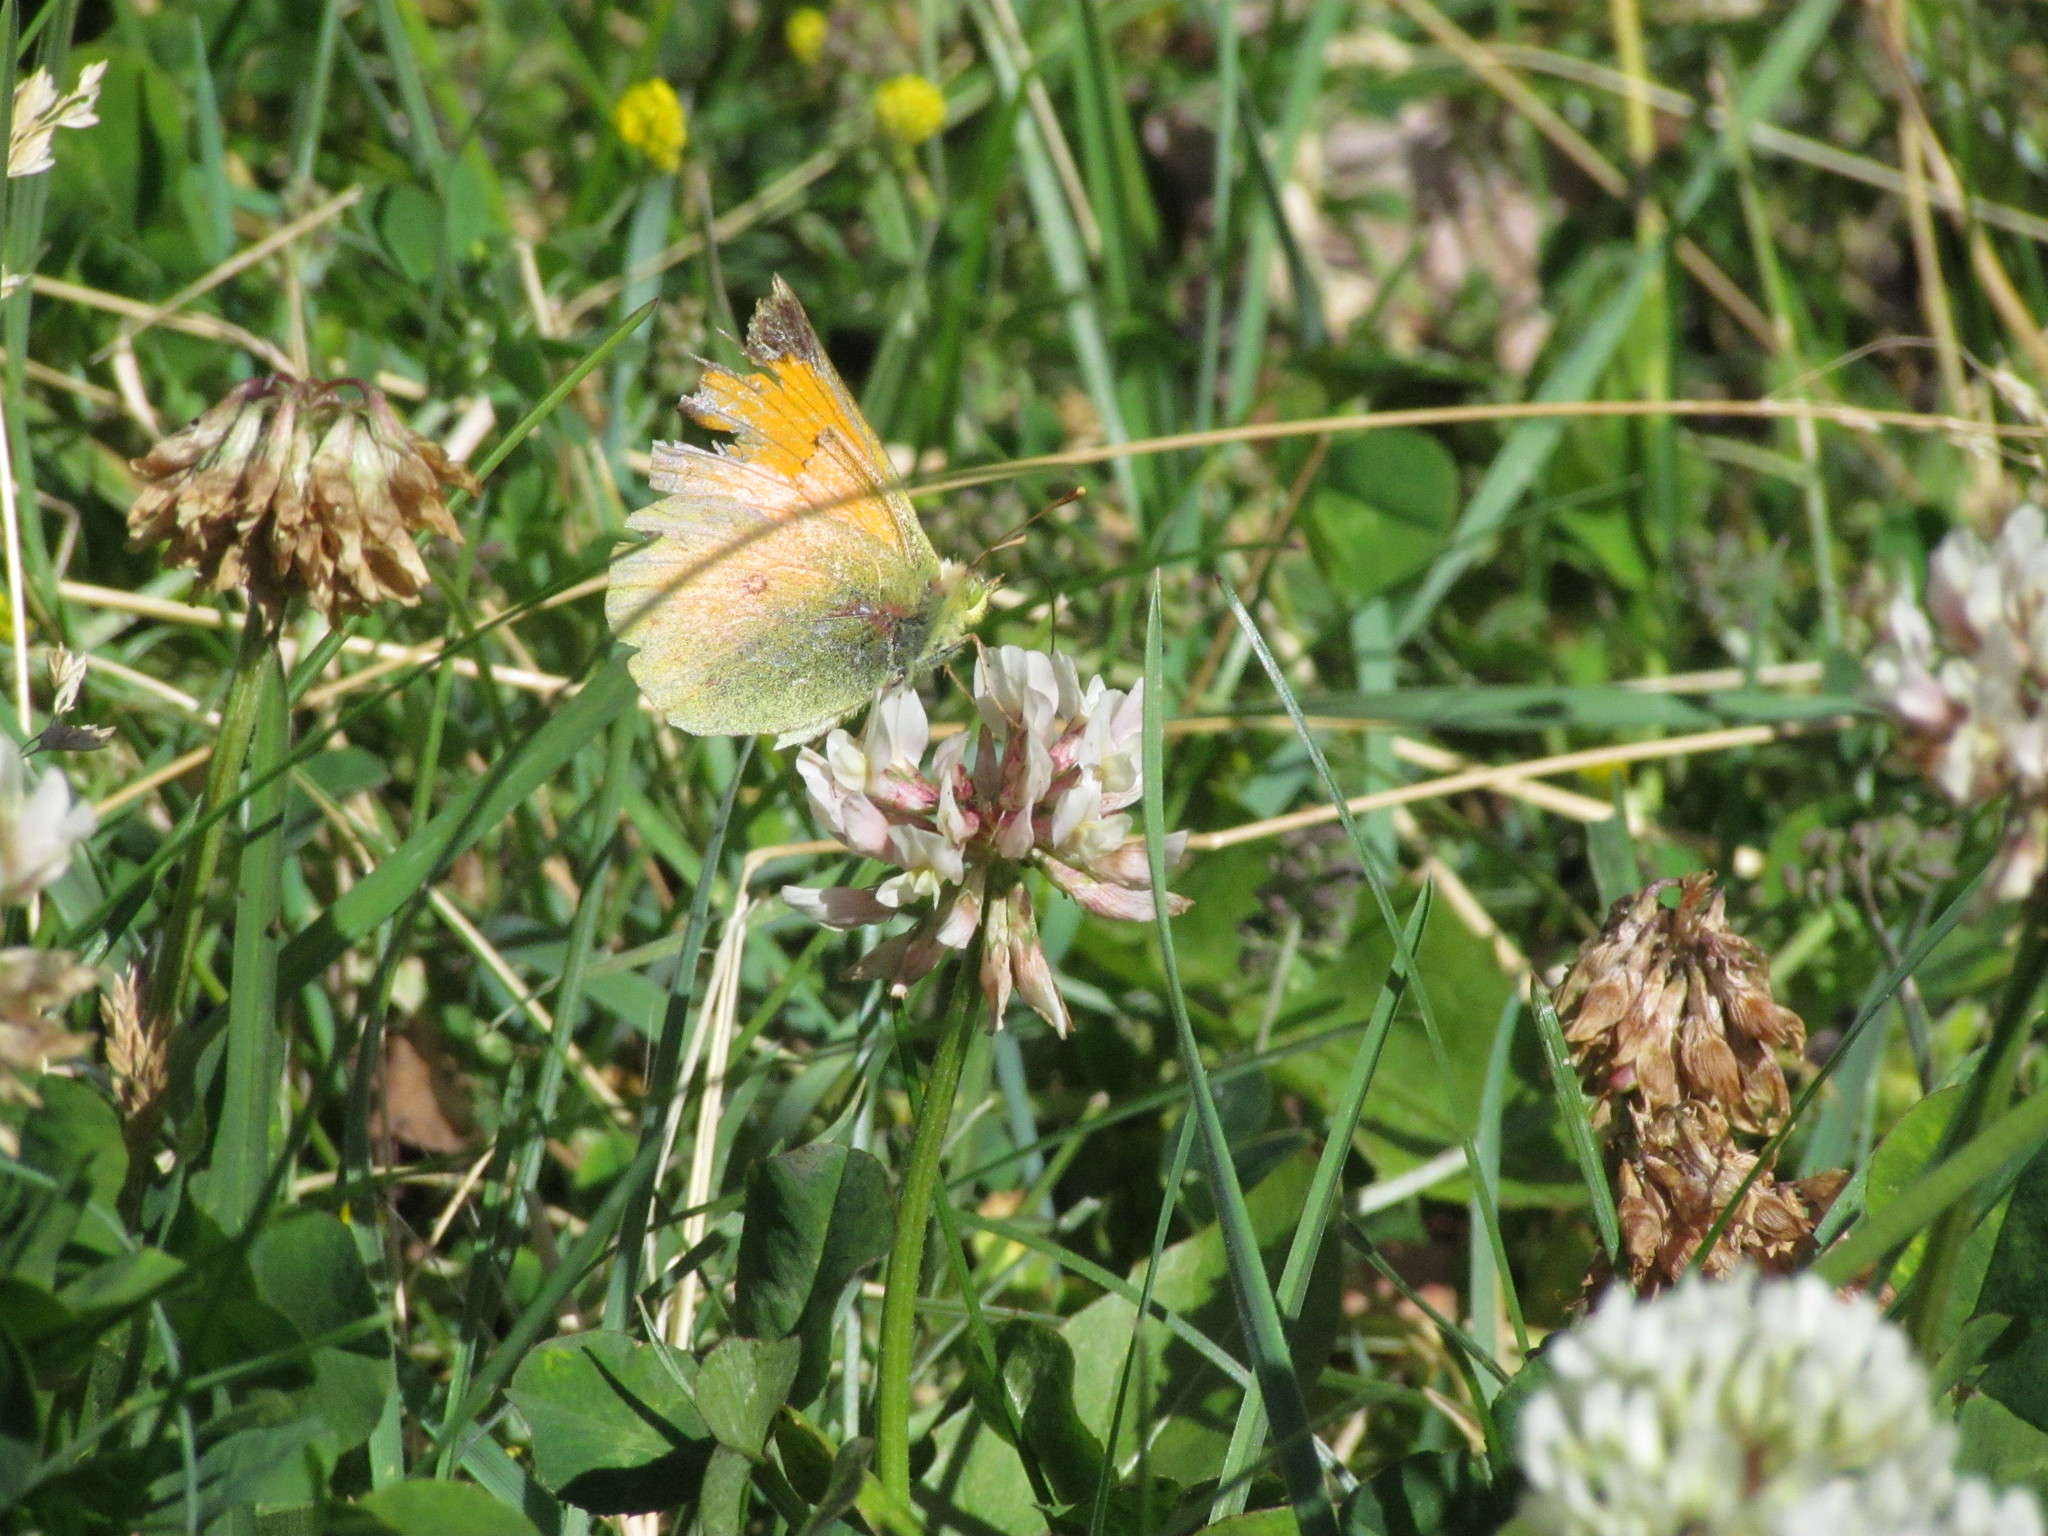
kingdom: Animalia
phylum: Arthropoda
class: Insecta
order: Lepidoptera
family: Pieridae
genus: Colias
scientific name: Colias vauthierii
